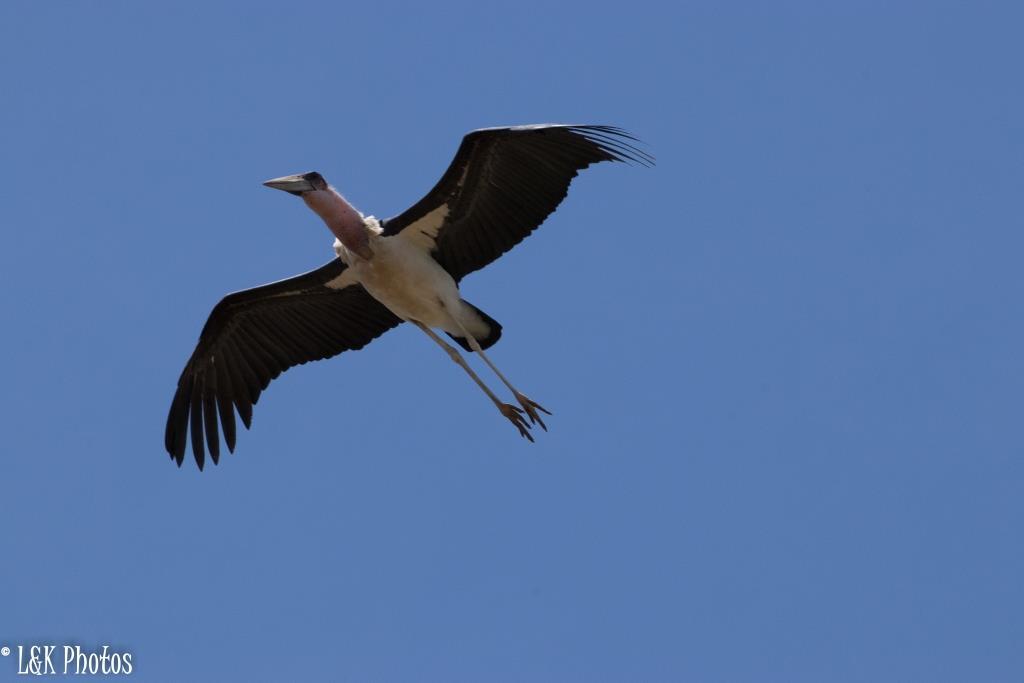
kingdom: Animalia
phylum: Chordata
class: Aves
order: Ciconiiformes
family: Ciconiidae
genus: Leptoptilos
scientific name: Leptoptilos crumenifer
